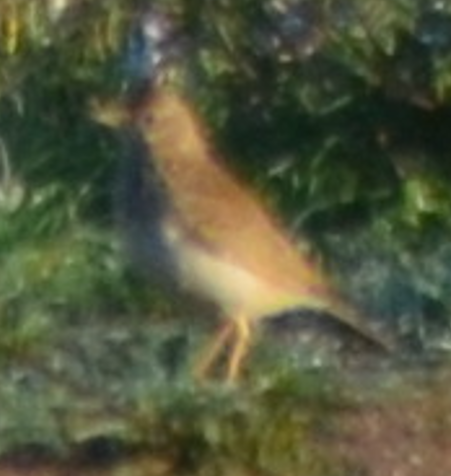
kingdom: Animalia
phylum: Chordata
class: Aves
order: Passeriformes
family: Alaudidae
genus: Galerida
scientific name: Galerida cristata
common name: Crested lark
